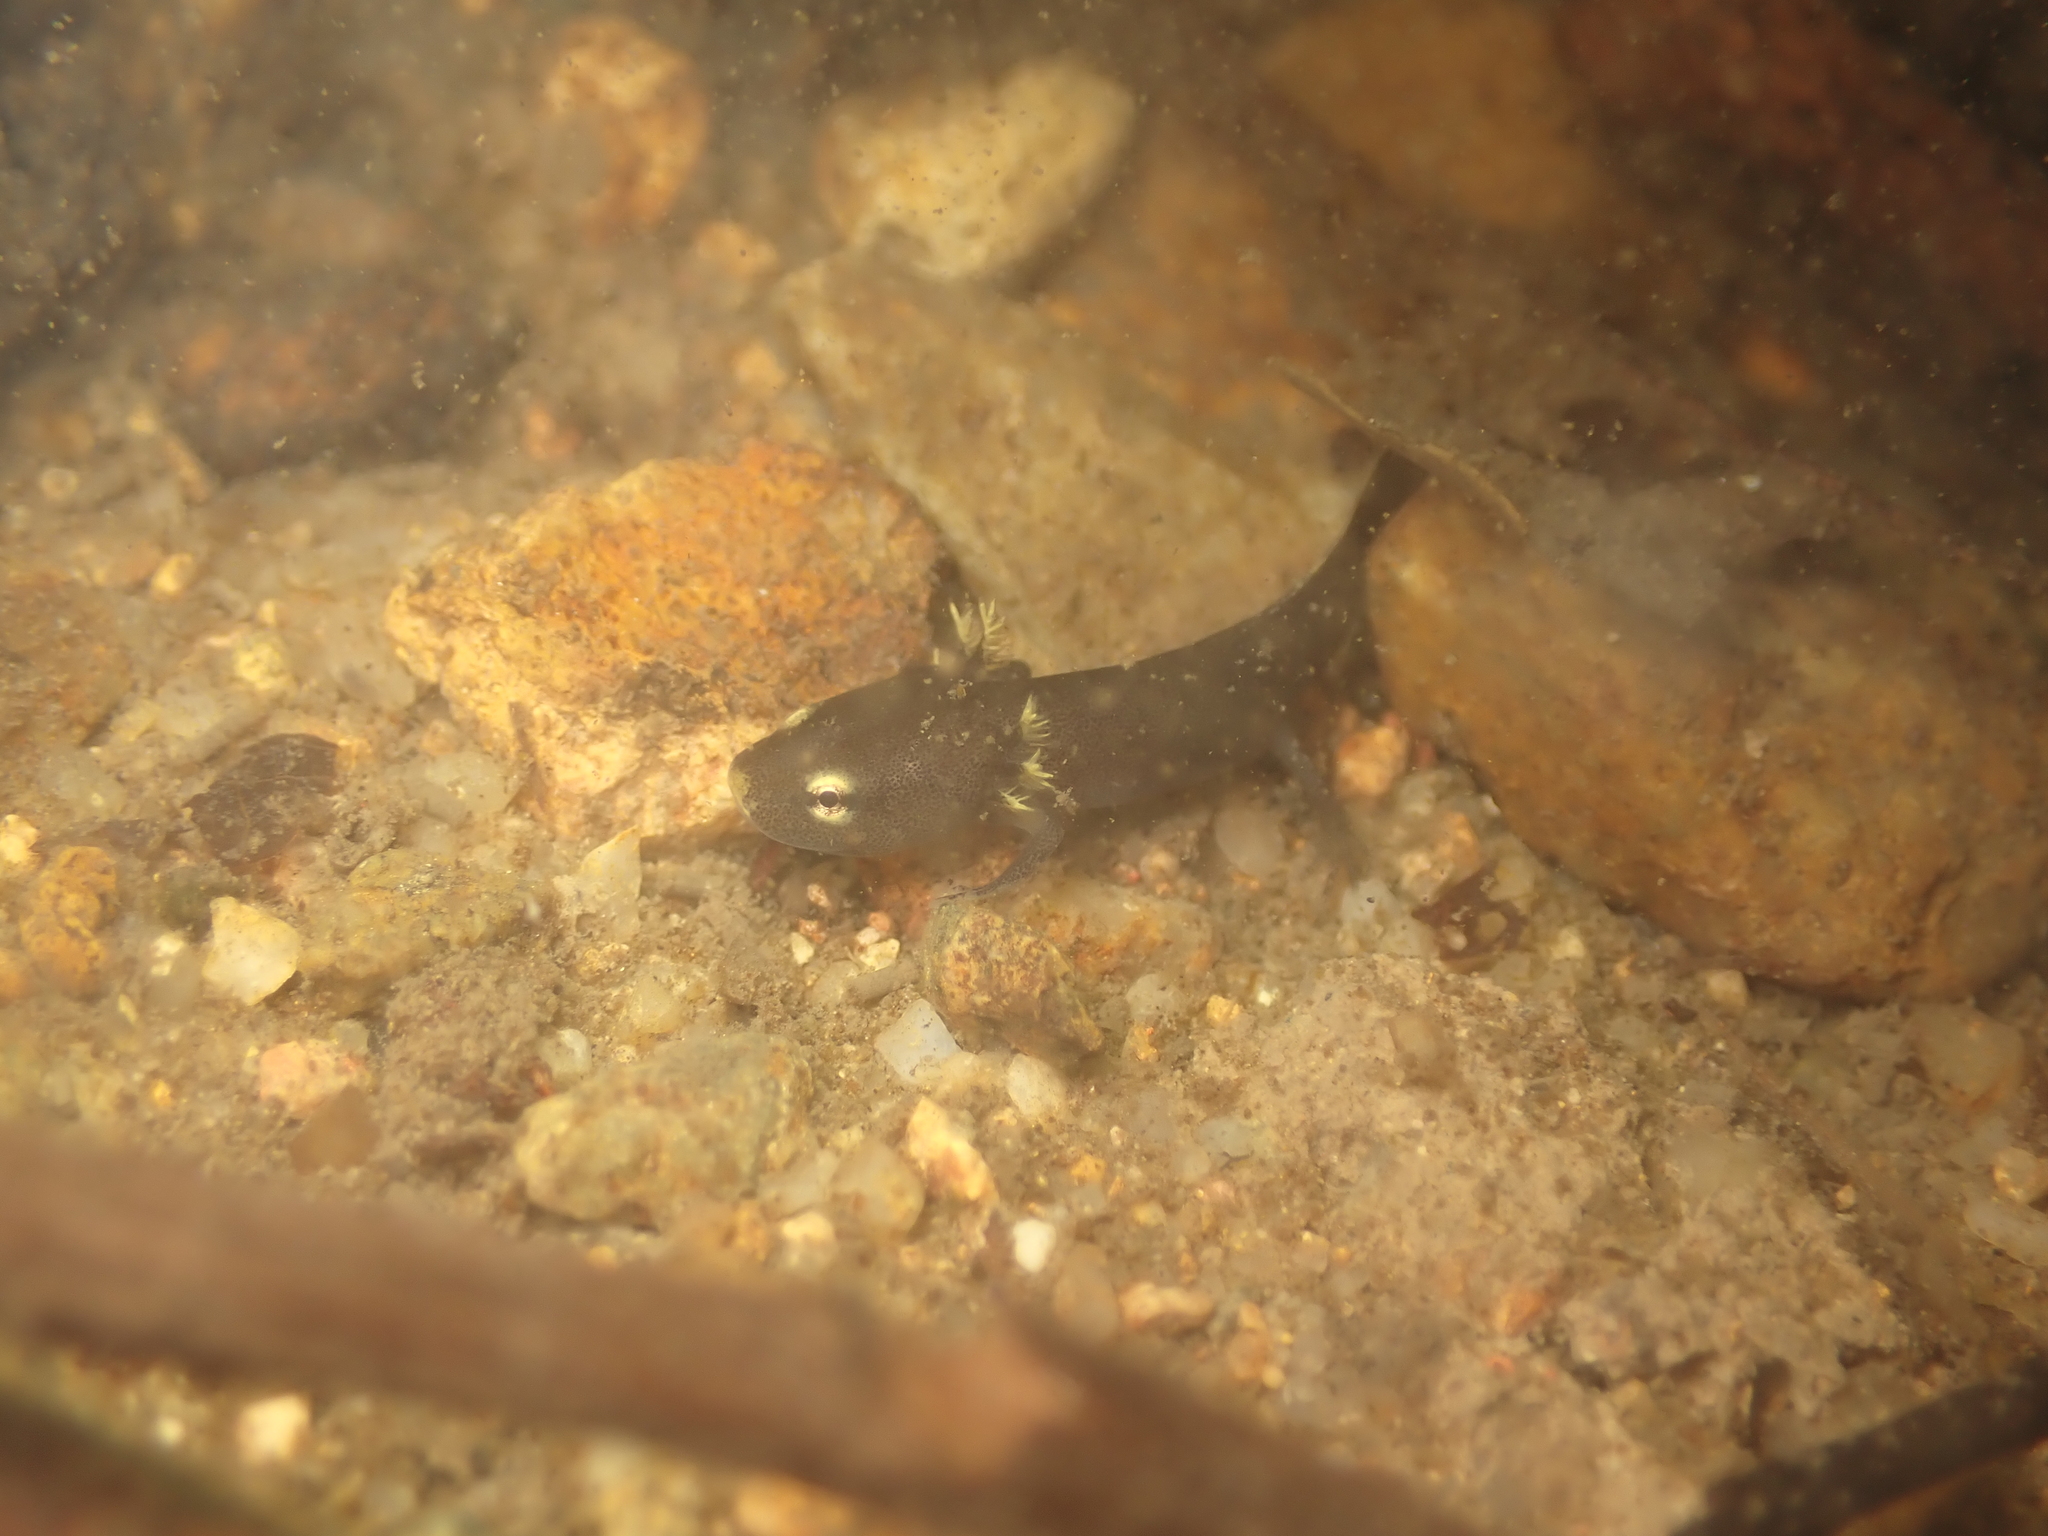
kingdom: Animalia
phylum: Chordata
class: Amphibia
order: Caudata
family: Salamandridae
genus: Paramesotriton
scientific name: Paramesotriton hongkongensis
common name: Hong kong warty newt
